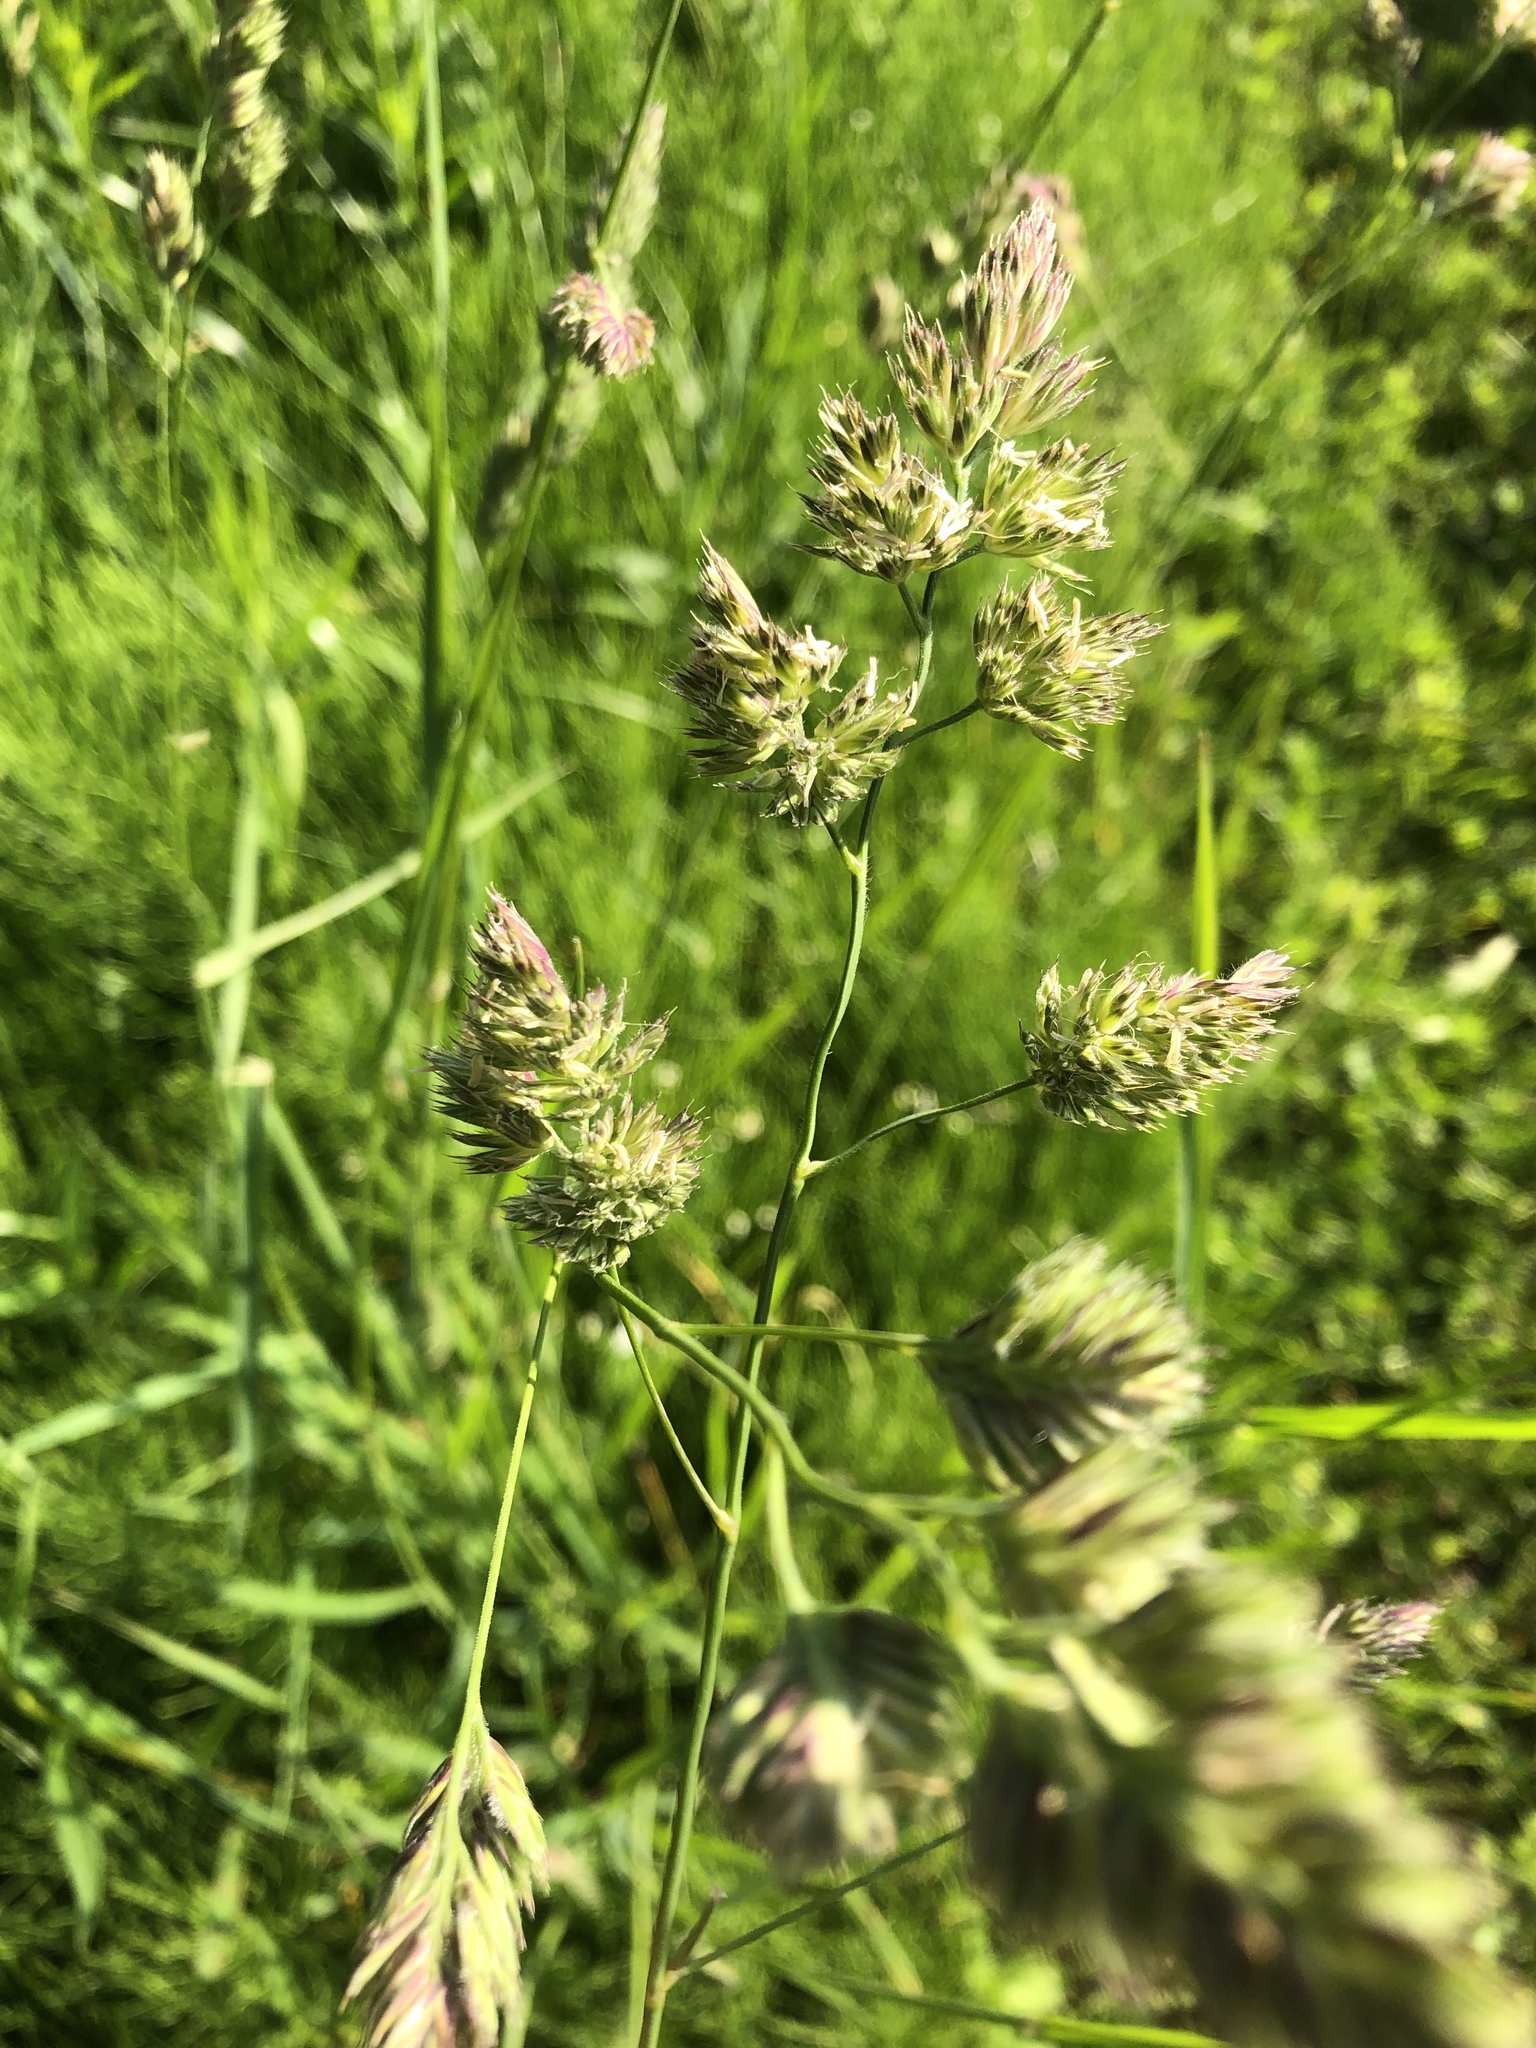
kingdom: Plantae
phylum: Tracheophyta
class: Liliopsida
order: Poales
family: Poaceae
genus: Dactylis
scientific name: Dactylis glomerata
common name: Orchardgrass
